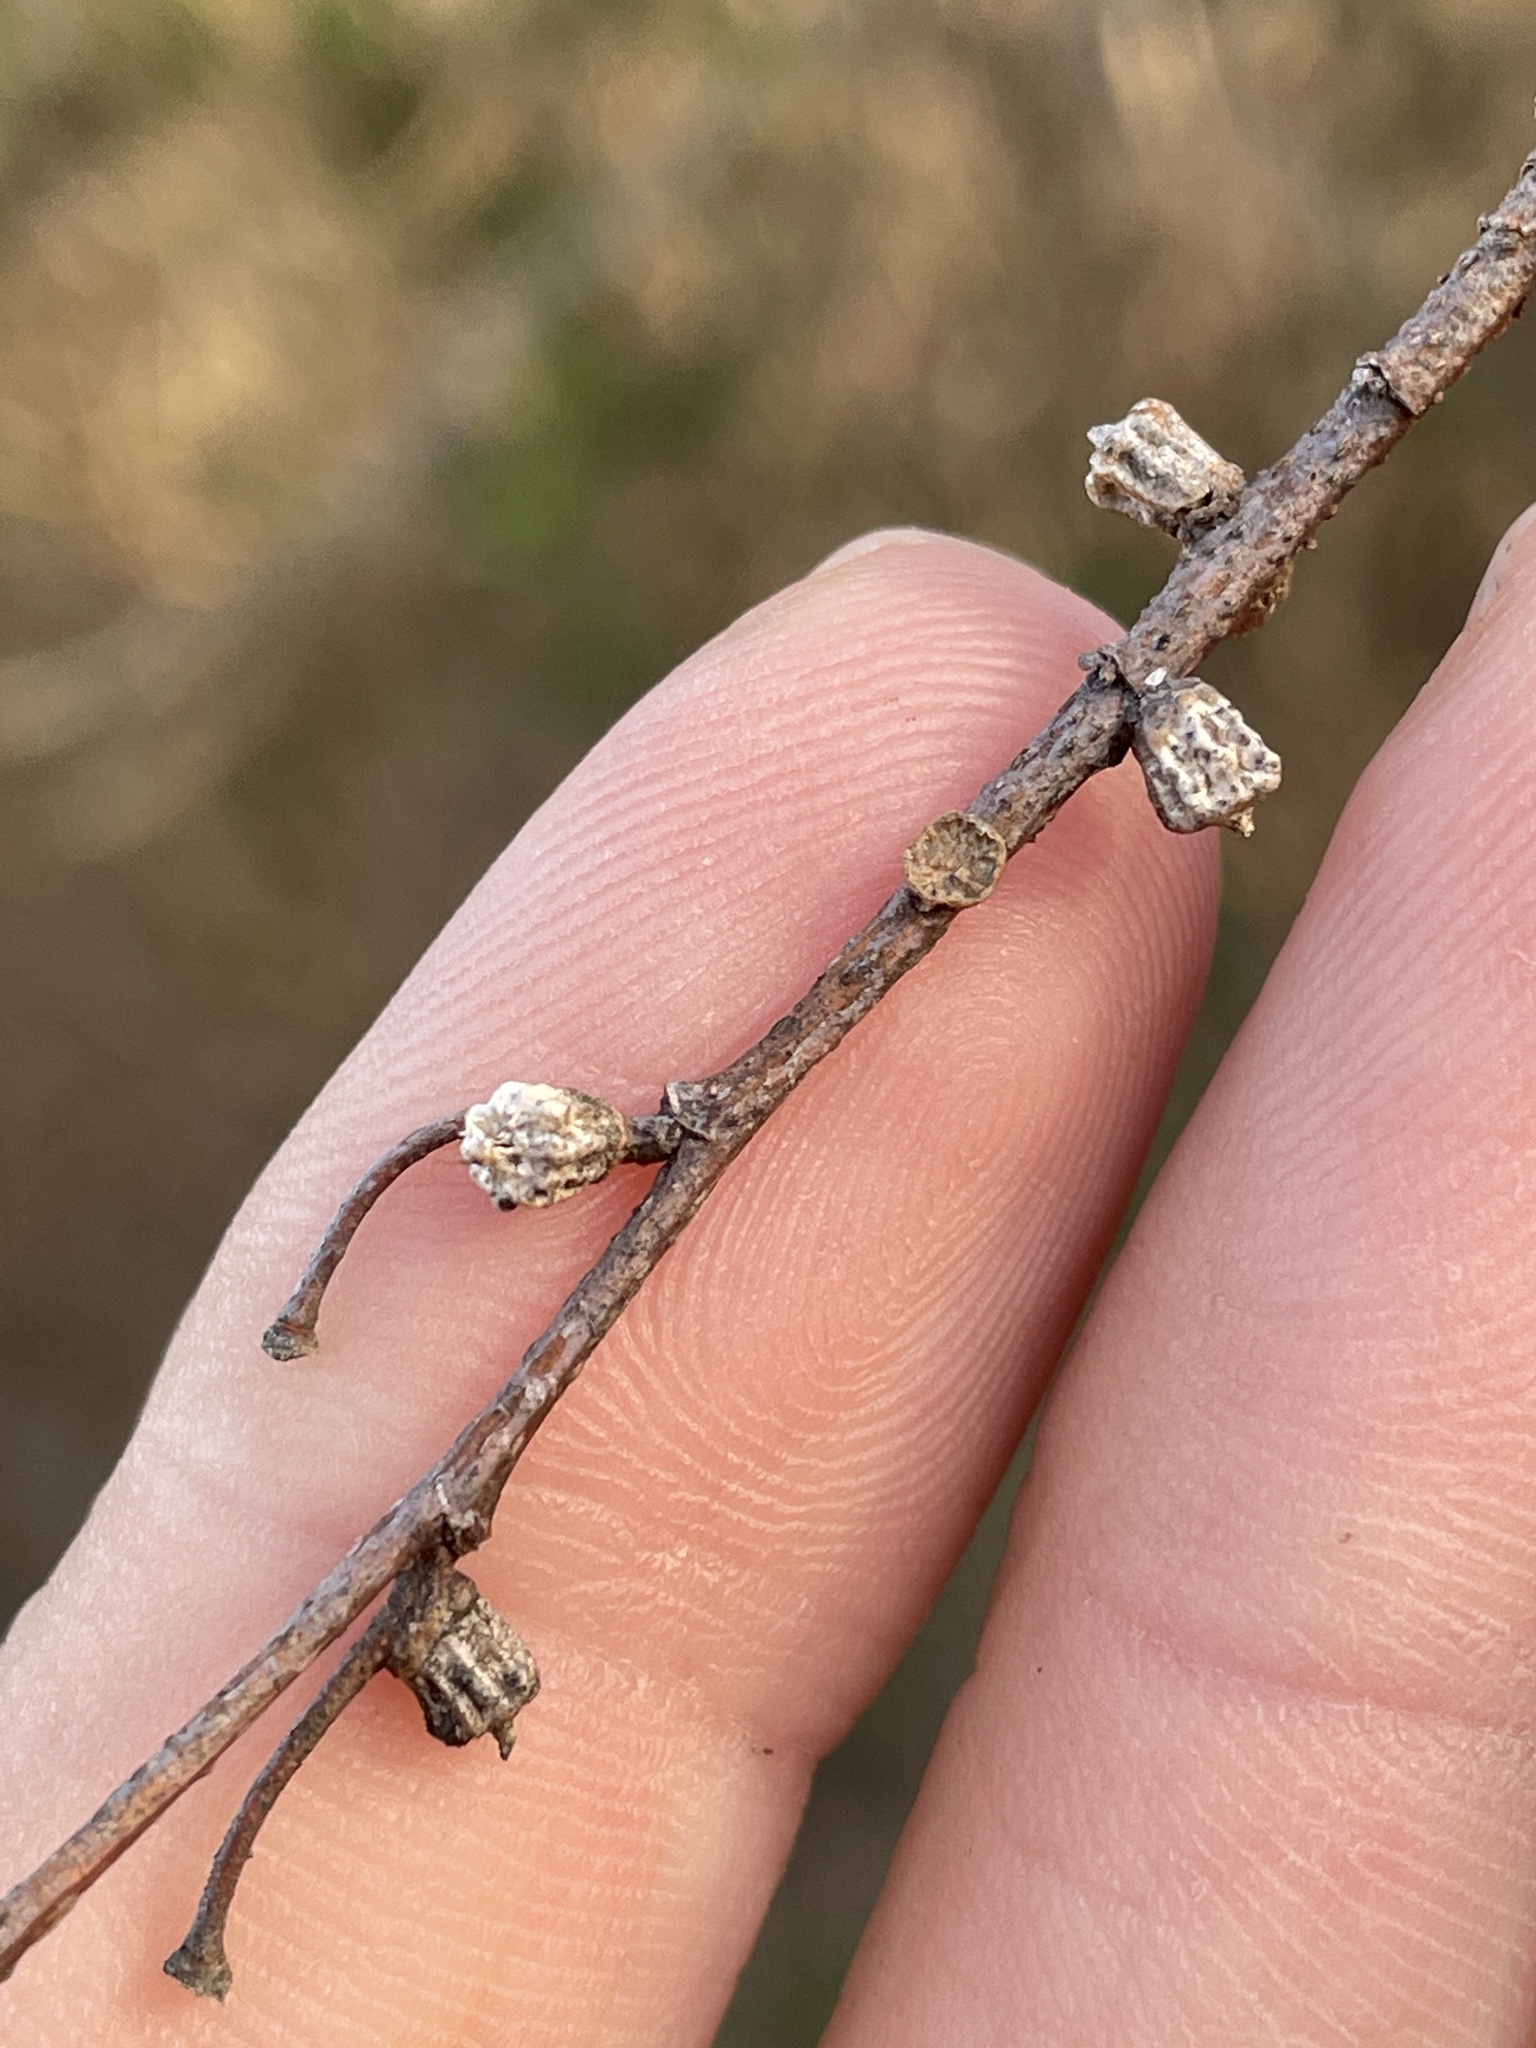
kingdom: Animalia
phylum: Arthropoda
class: Insecta
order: Diptera
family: Cecidomyiidae
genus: Celticecis
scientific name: Celticecis ramicola
